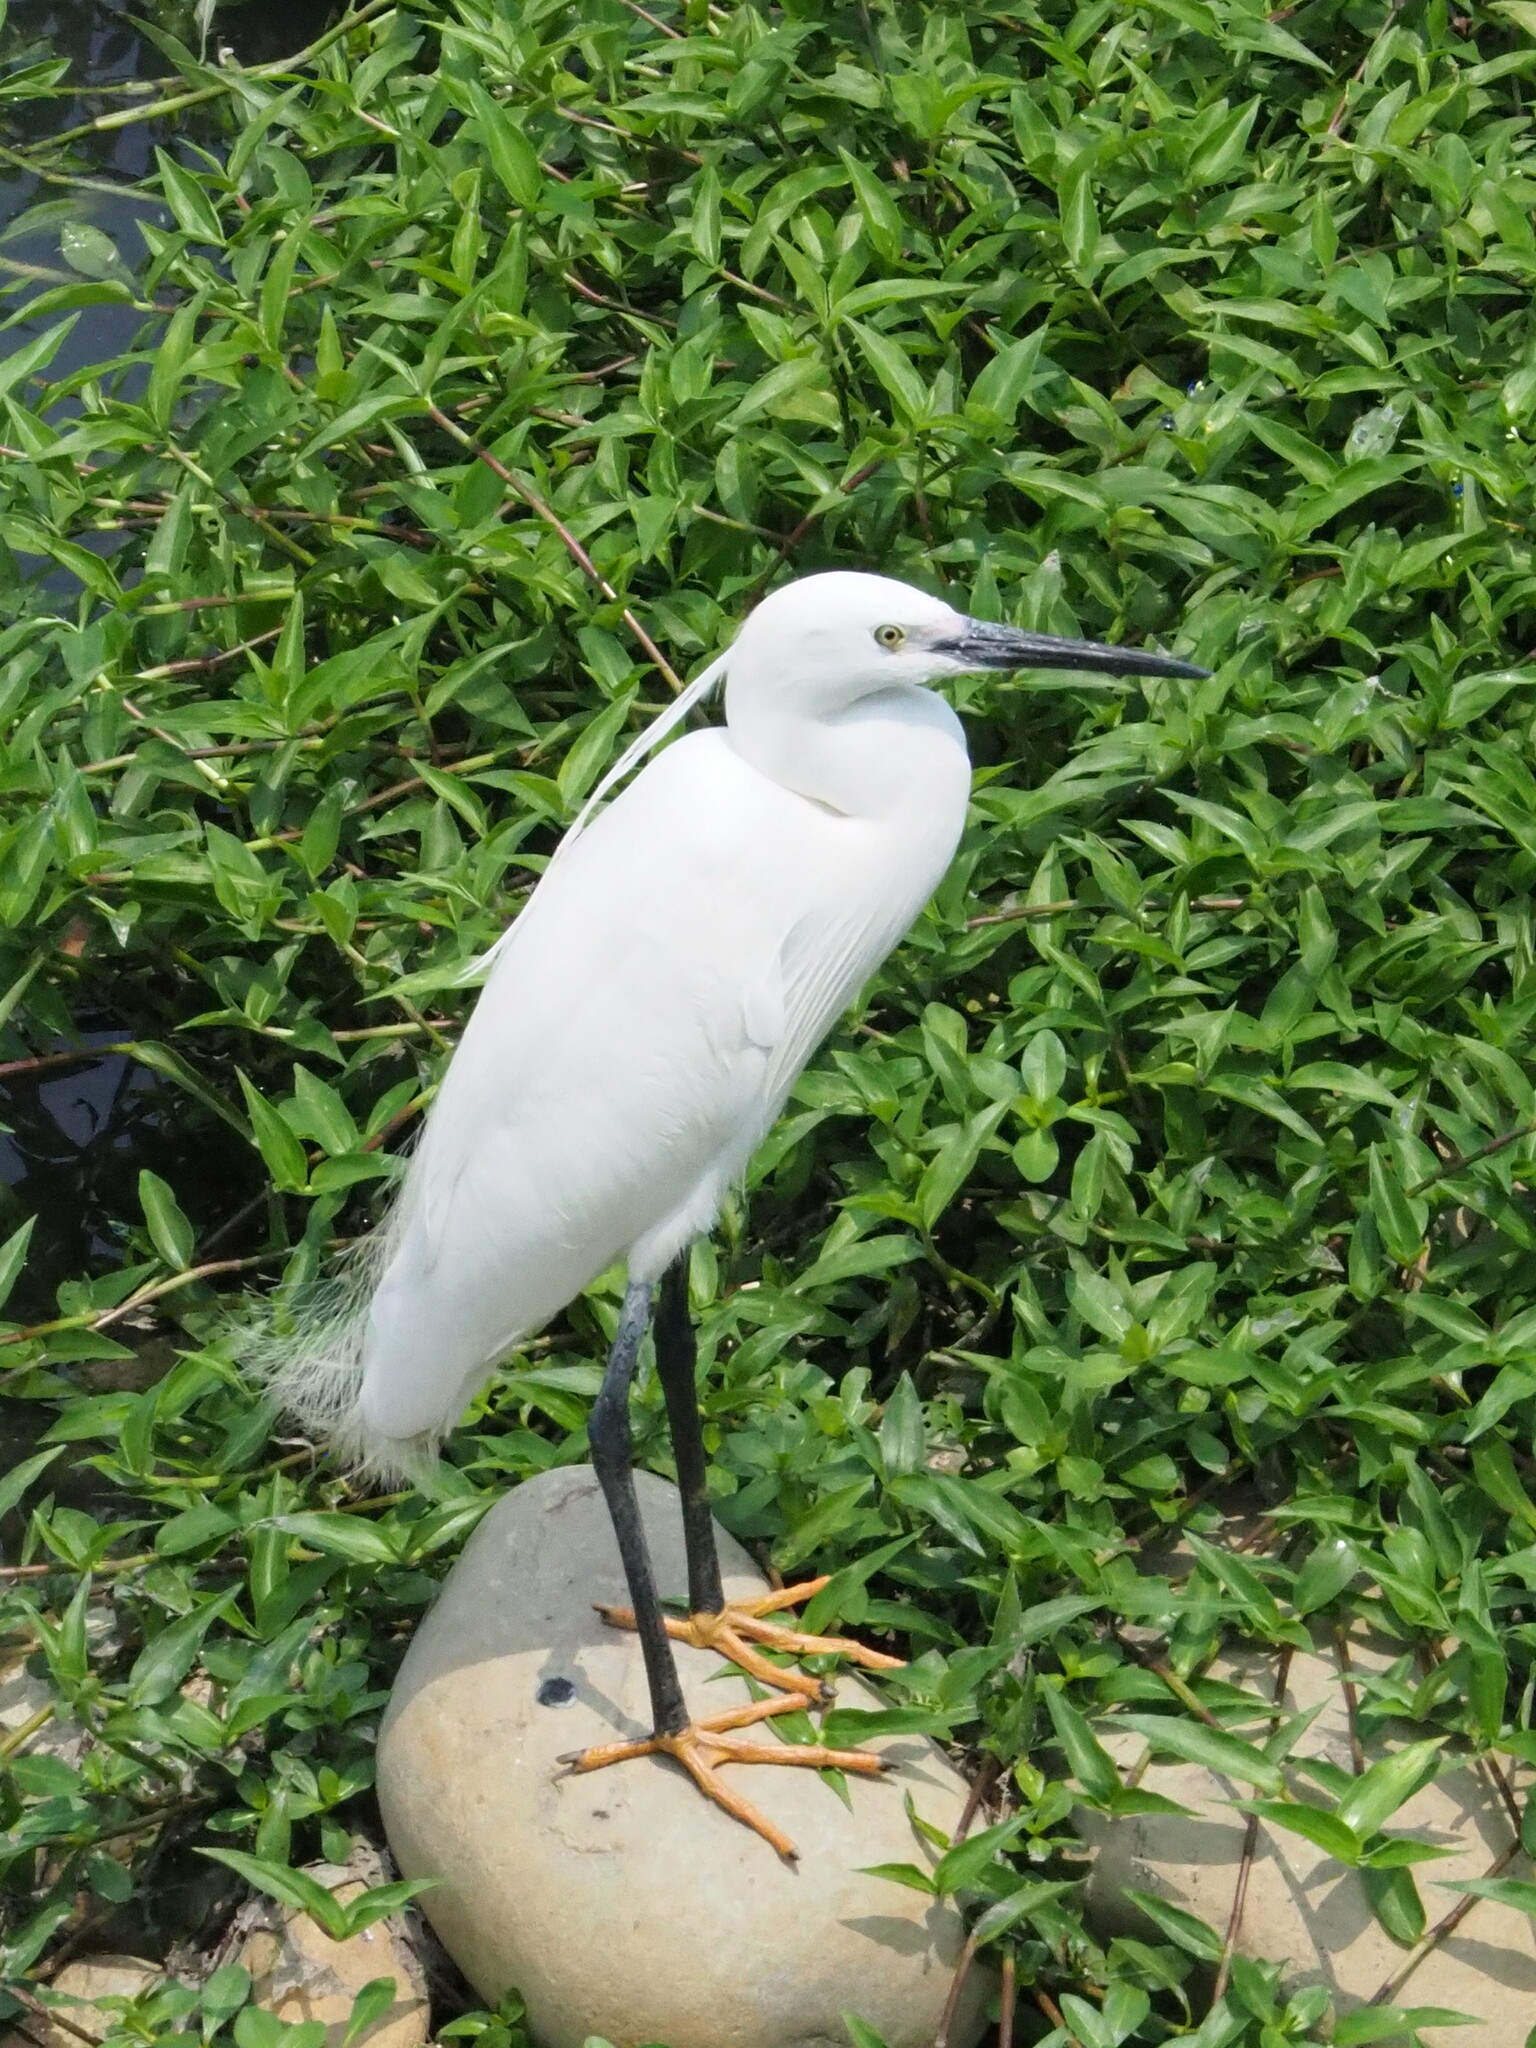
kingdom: Animalia
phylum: Chordata
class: Aves
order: Pelecaniformes
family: Ardeidae
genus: Egretta
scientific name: Egretta garzetta
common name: Little egret
